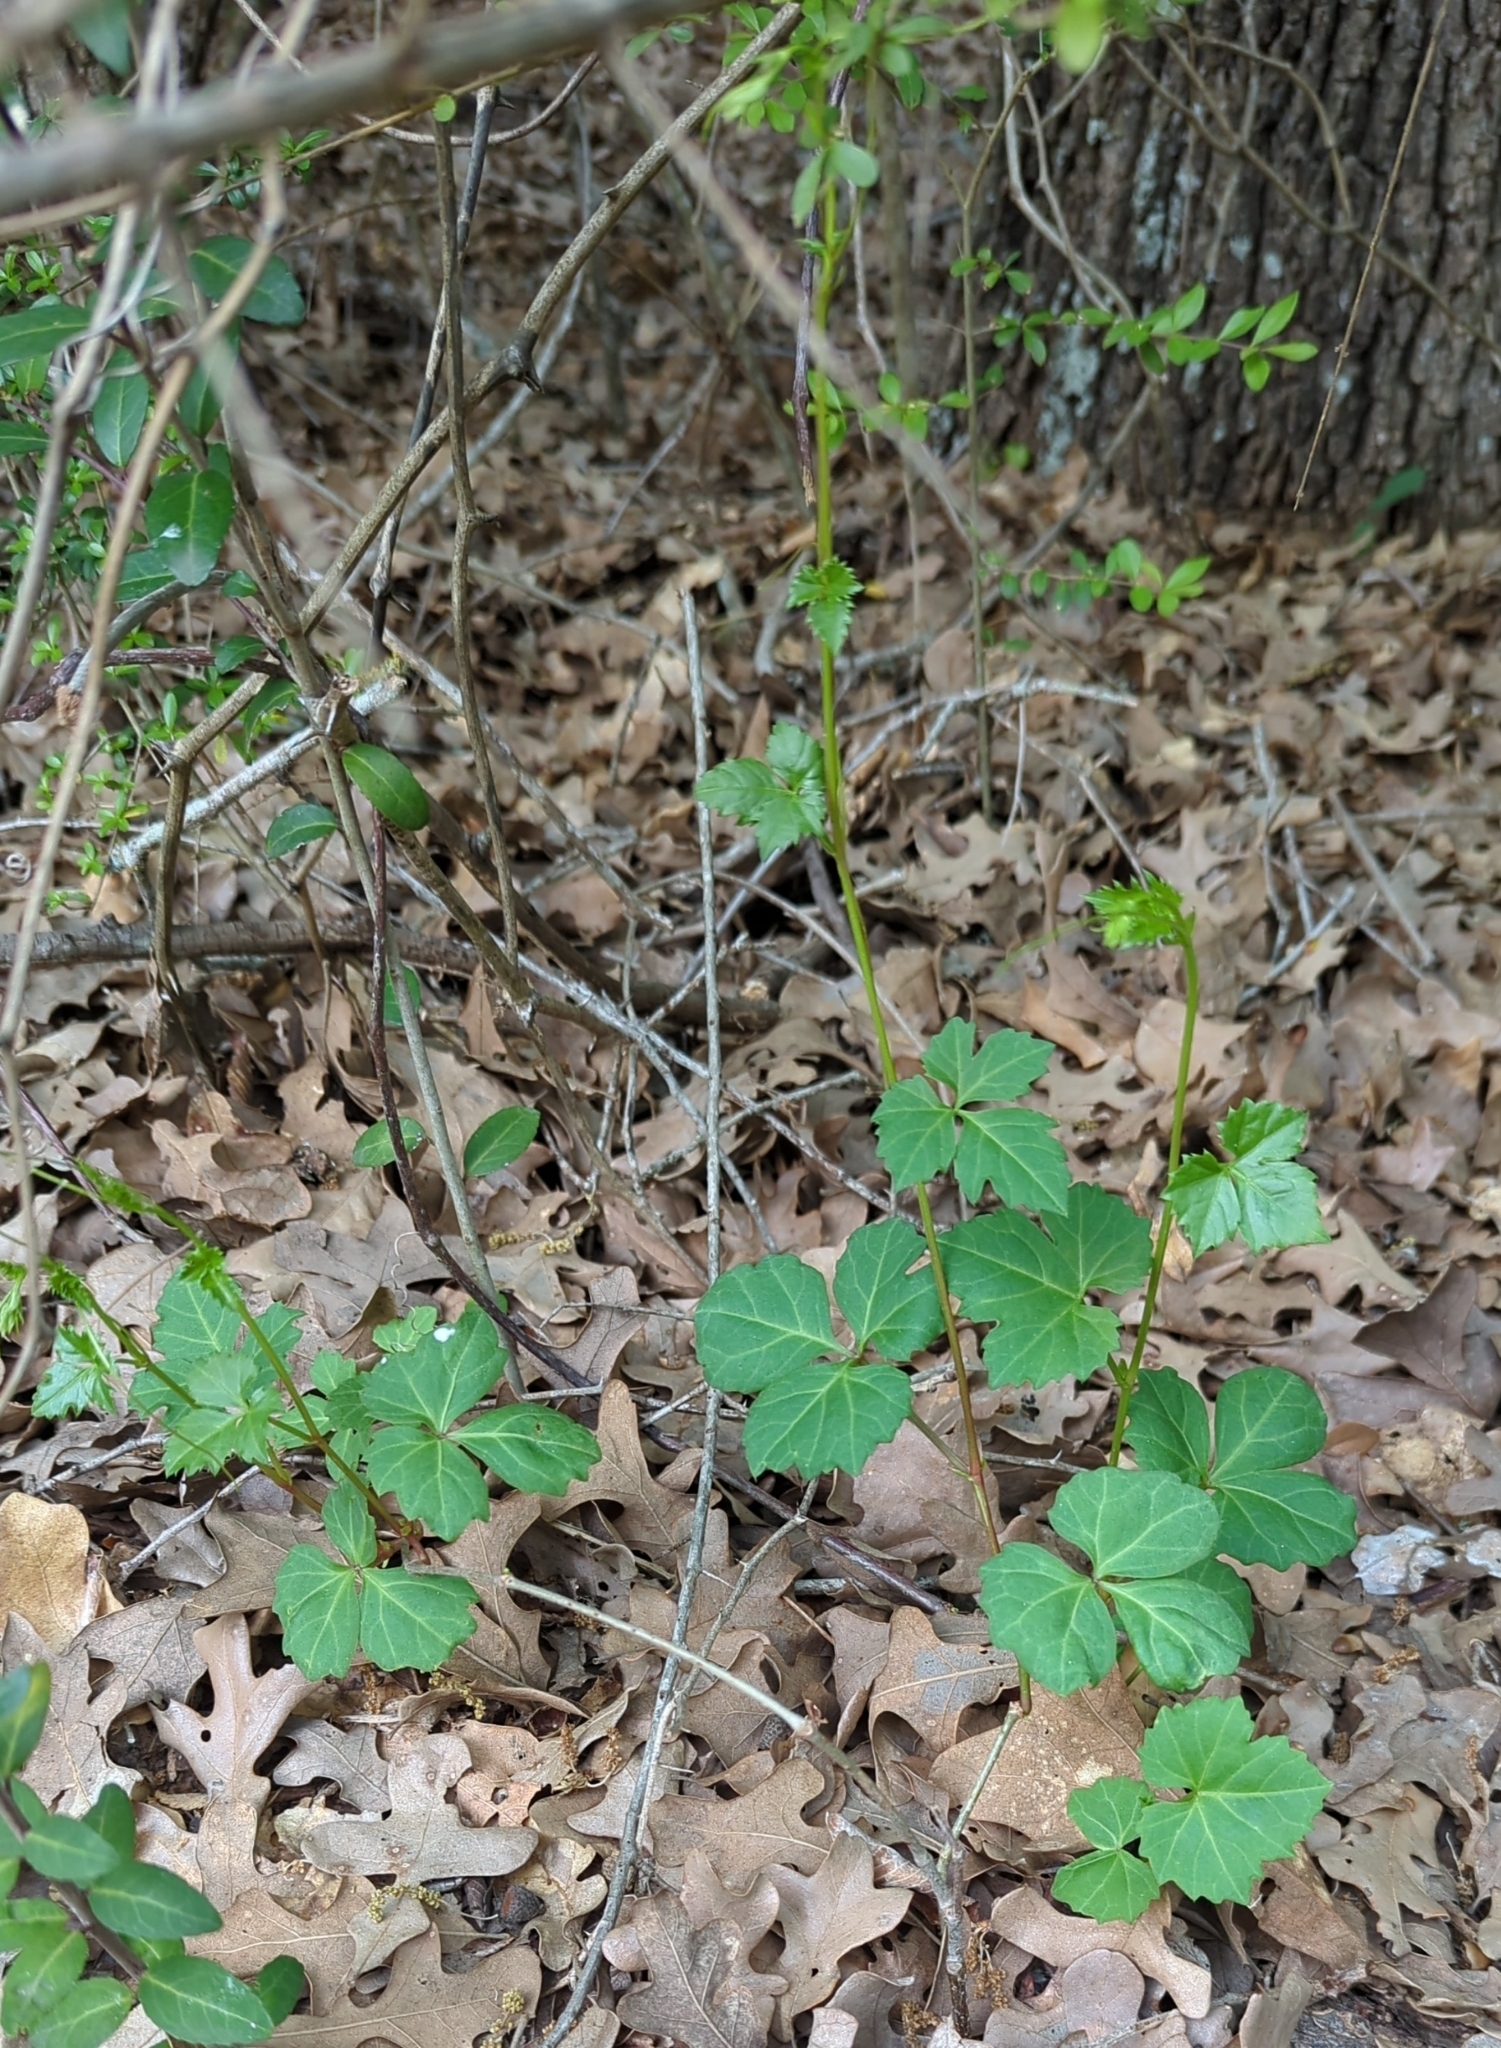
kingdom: Plantae
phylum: Tracheophyta
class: Magnoliopsida
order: Vitales
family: Vitaceae
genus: Cissus
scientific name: Cissus trifoliata
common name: Vine-sorrel
